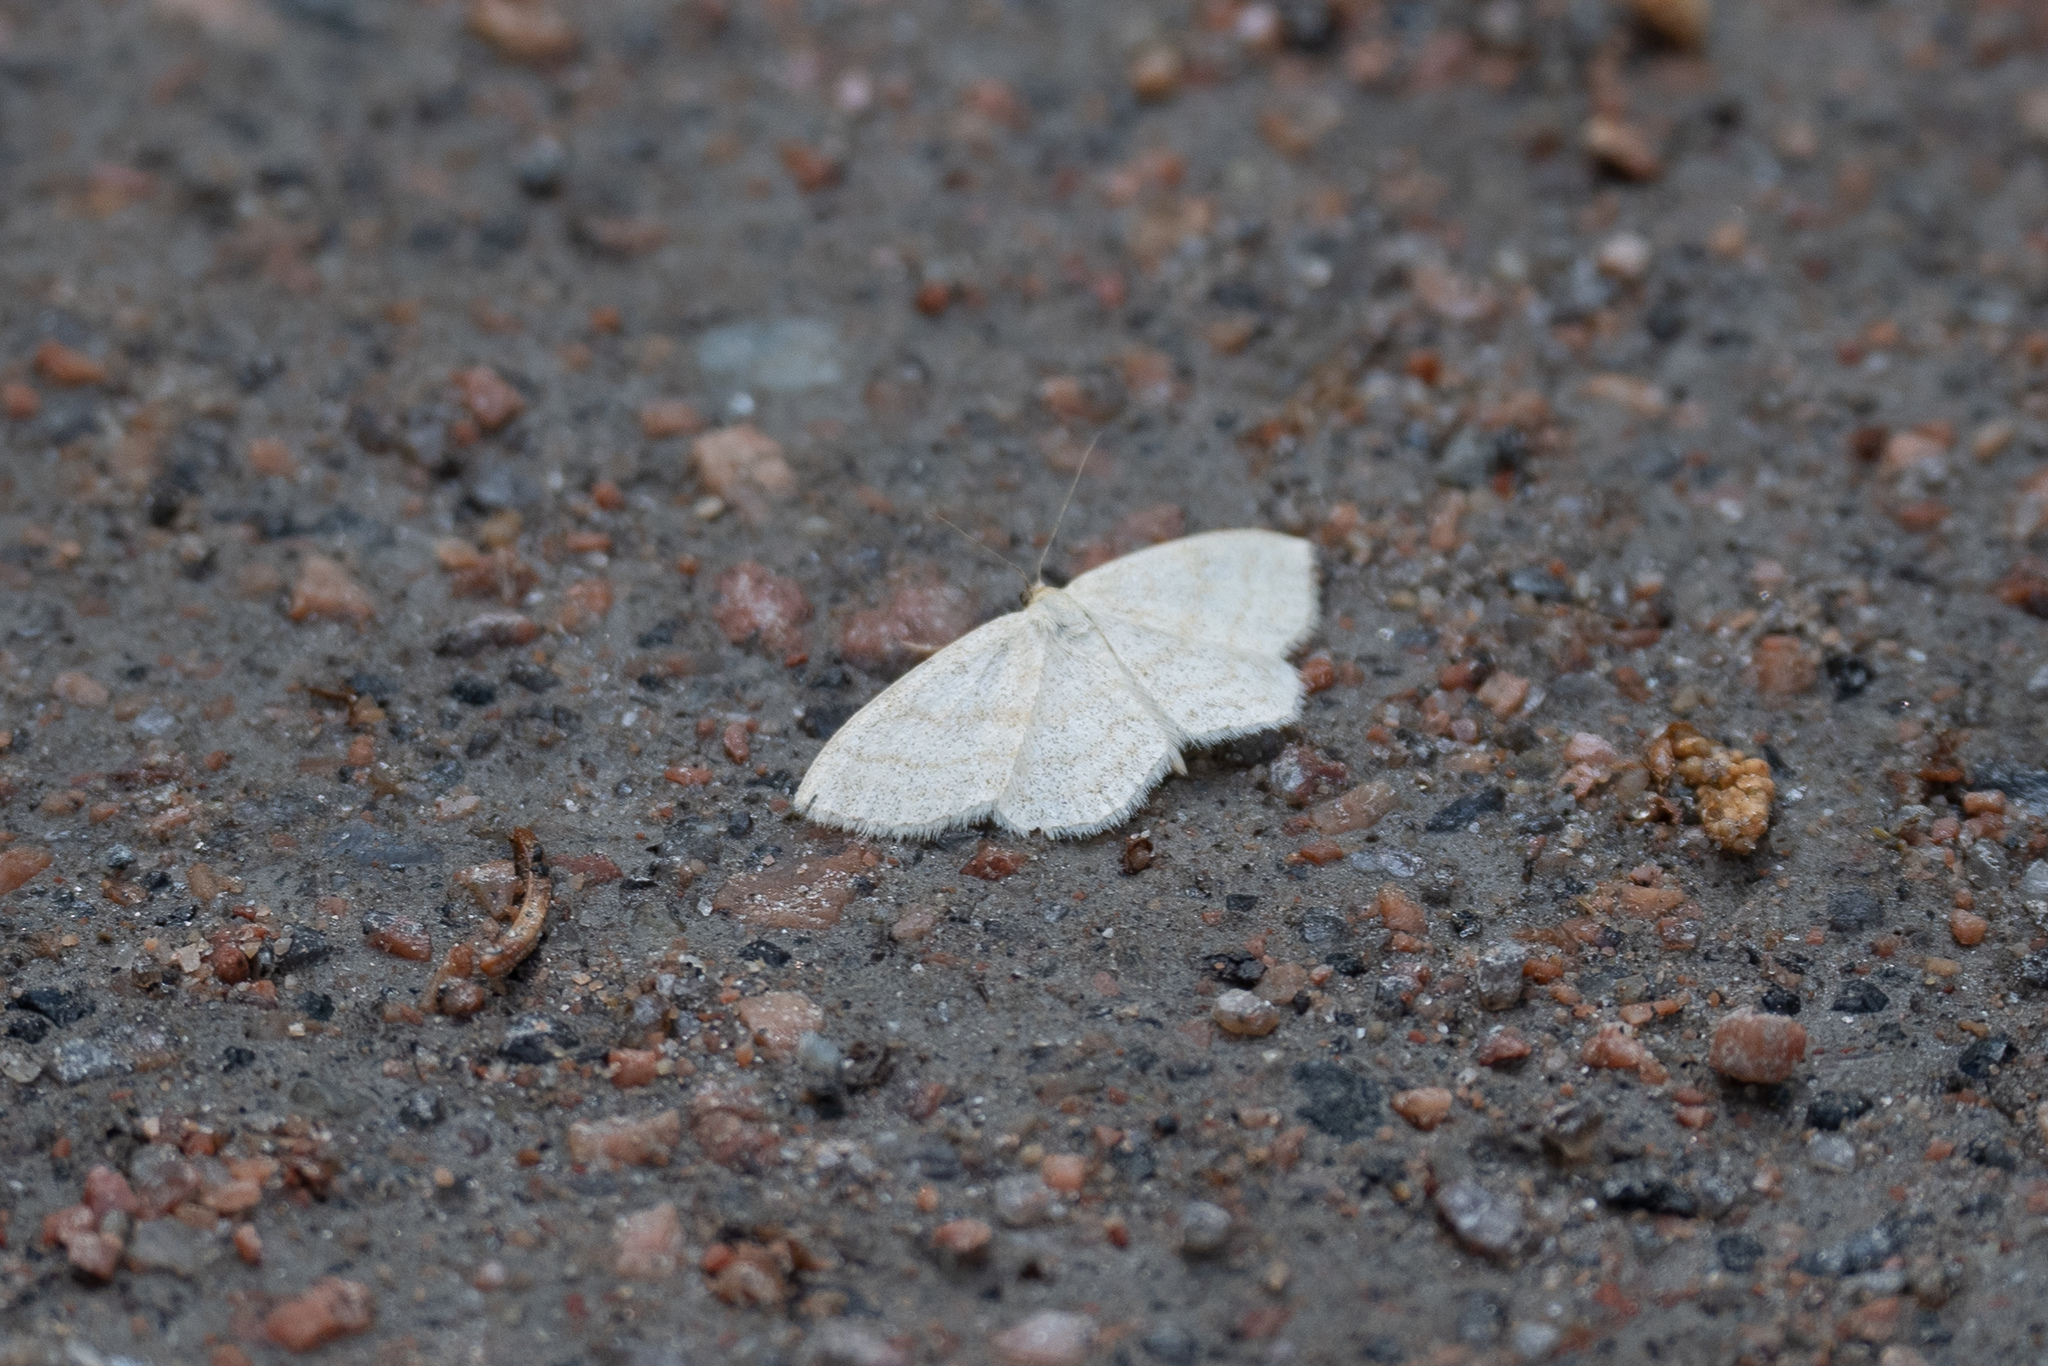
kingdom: Animalia
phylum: Arthropoda
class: Insecta
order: Lepidoptera
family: Geometridae
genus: Scopula
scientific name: Scopula ternata
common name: Smoky wave
